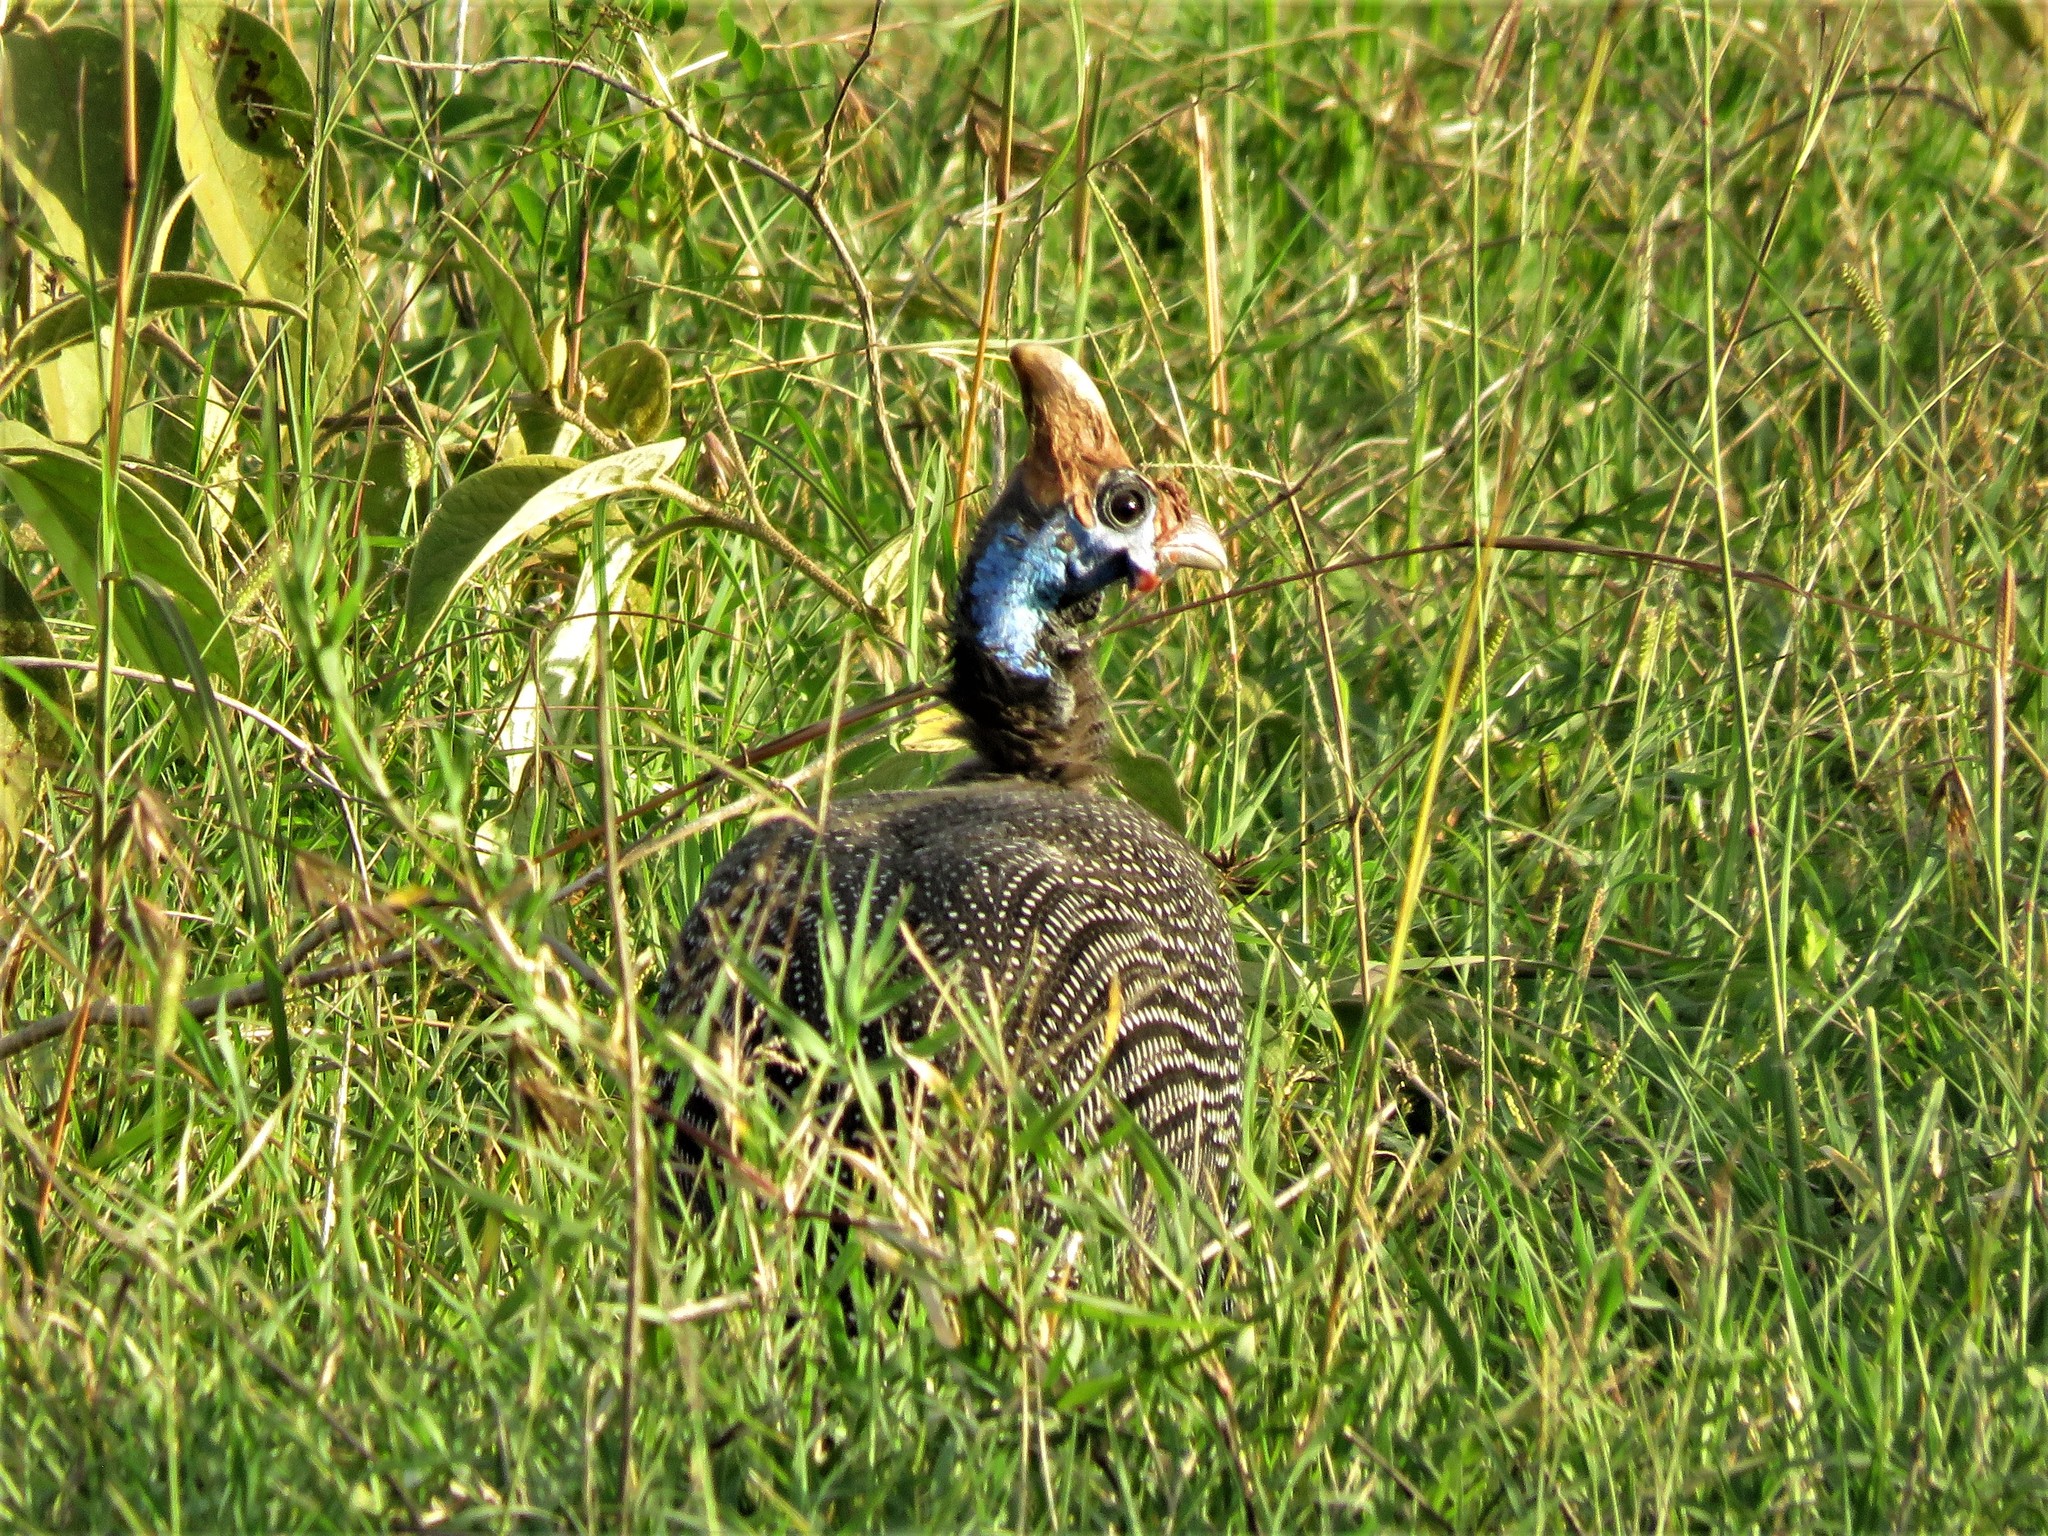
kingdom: Animalia
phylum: Chordata
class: Aves
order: Galliformes
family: Numididae
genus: Numida
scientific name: Numida meleagris
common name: Helmeted guineafowl
